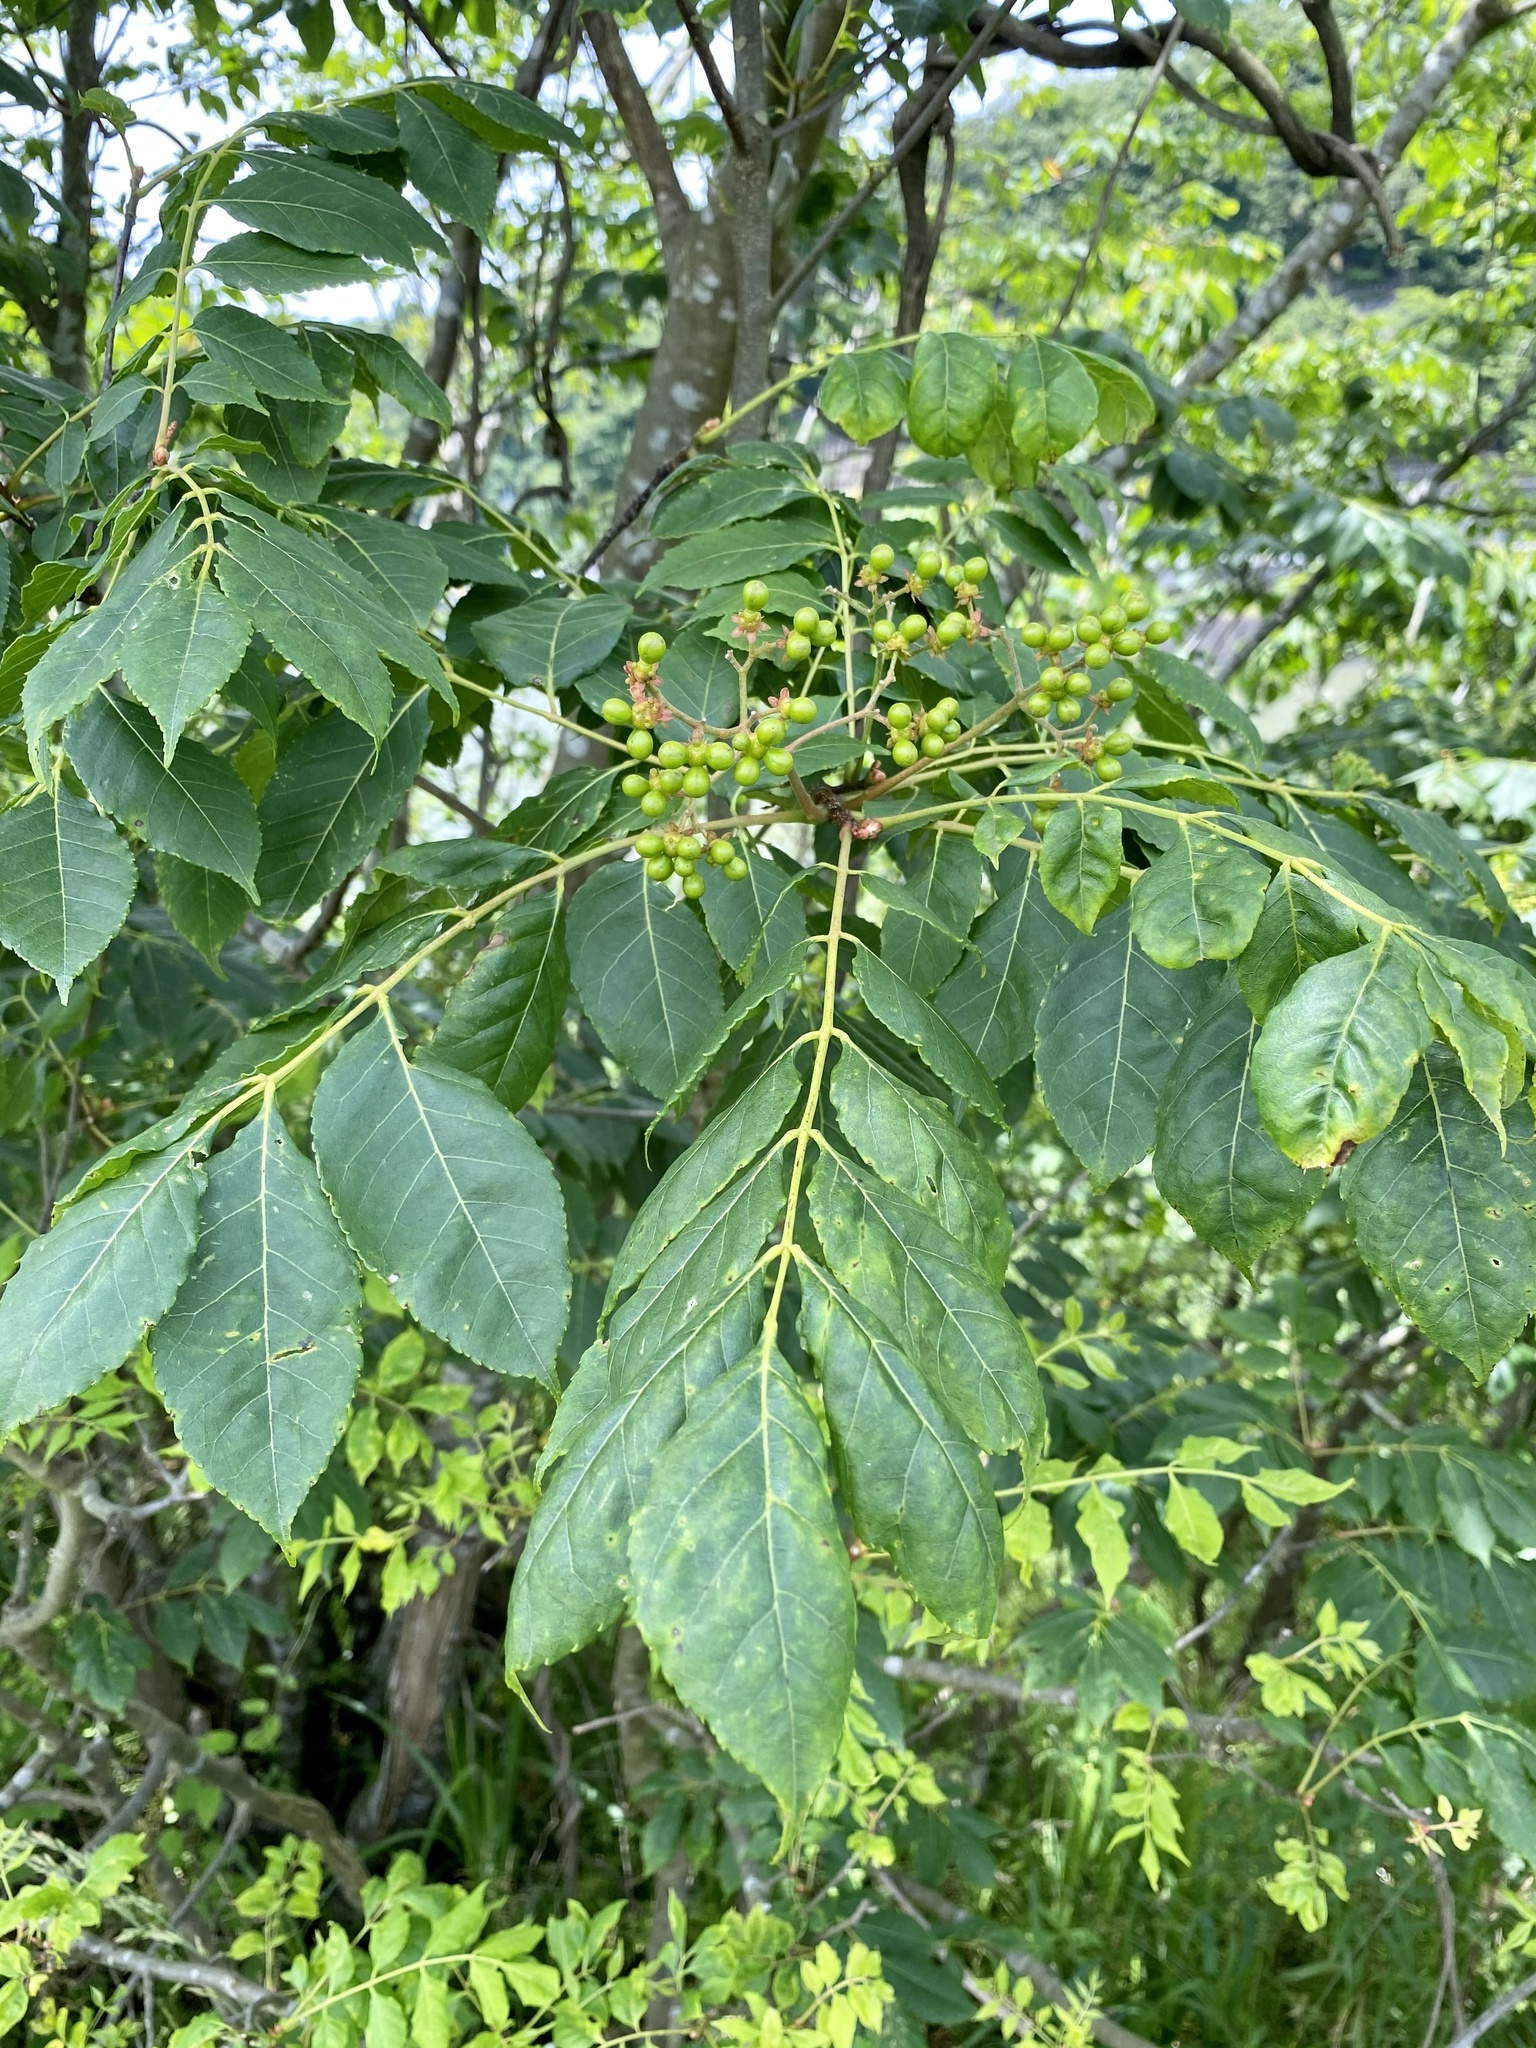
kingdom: Plantae
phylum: Tracheophyta
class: Magnoliopsida
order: Sapindales
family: Simaroubaceae
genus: Picrasma
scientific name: Picrasma quassioides
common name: Shurni
